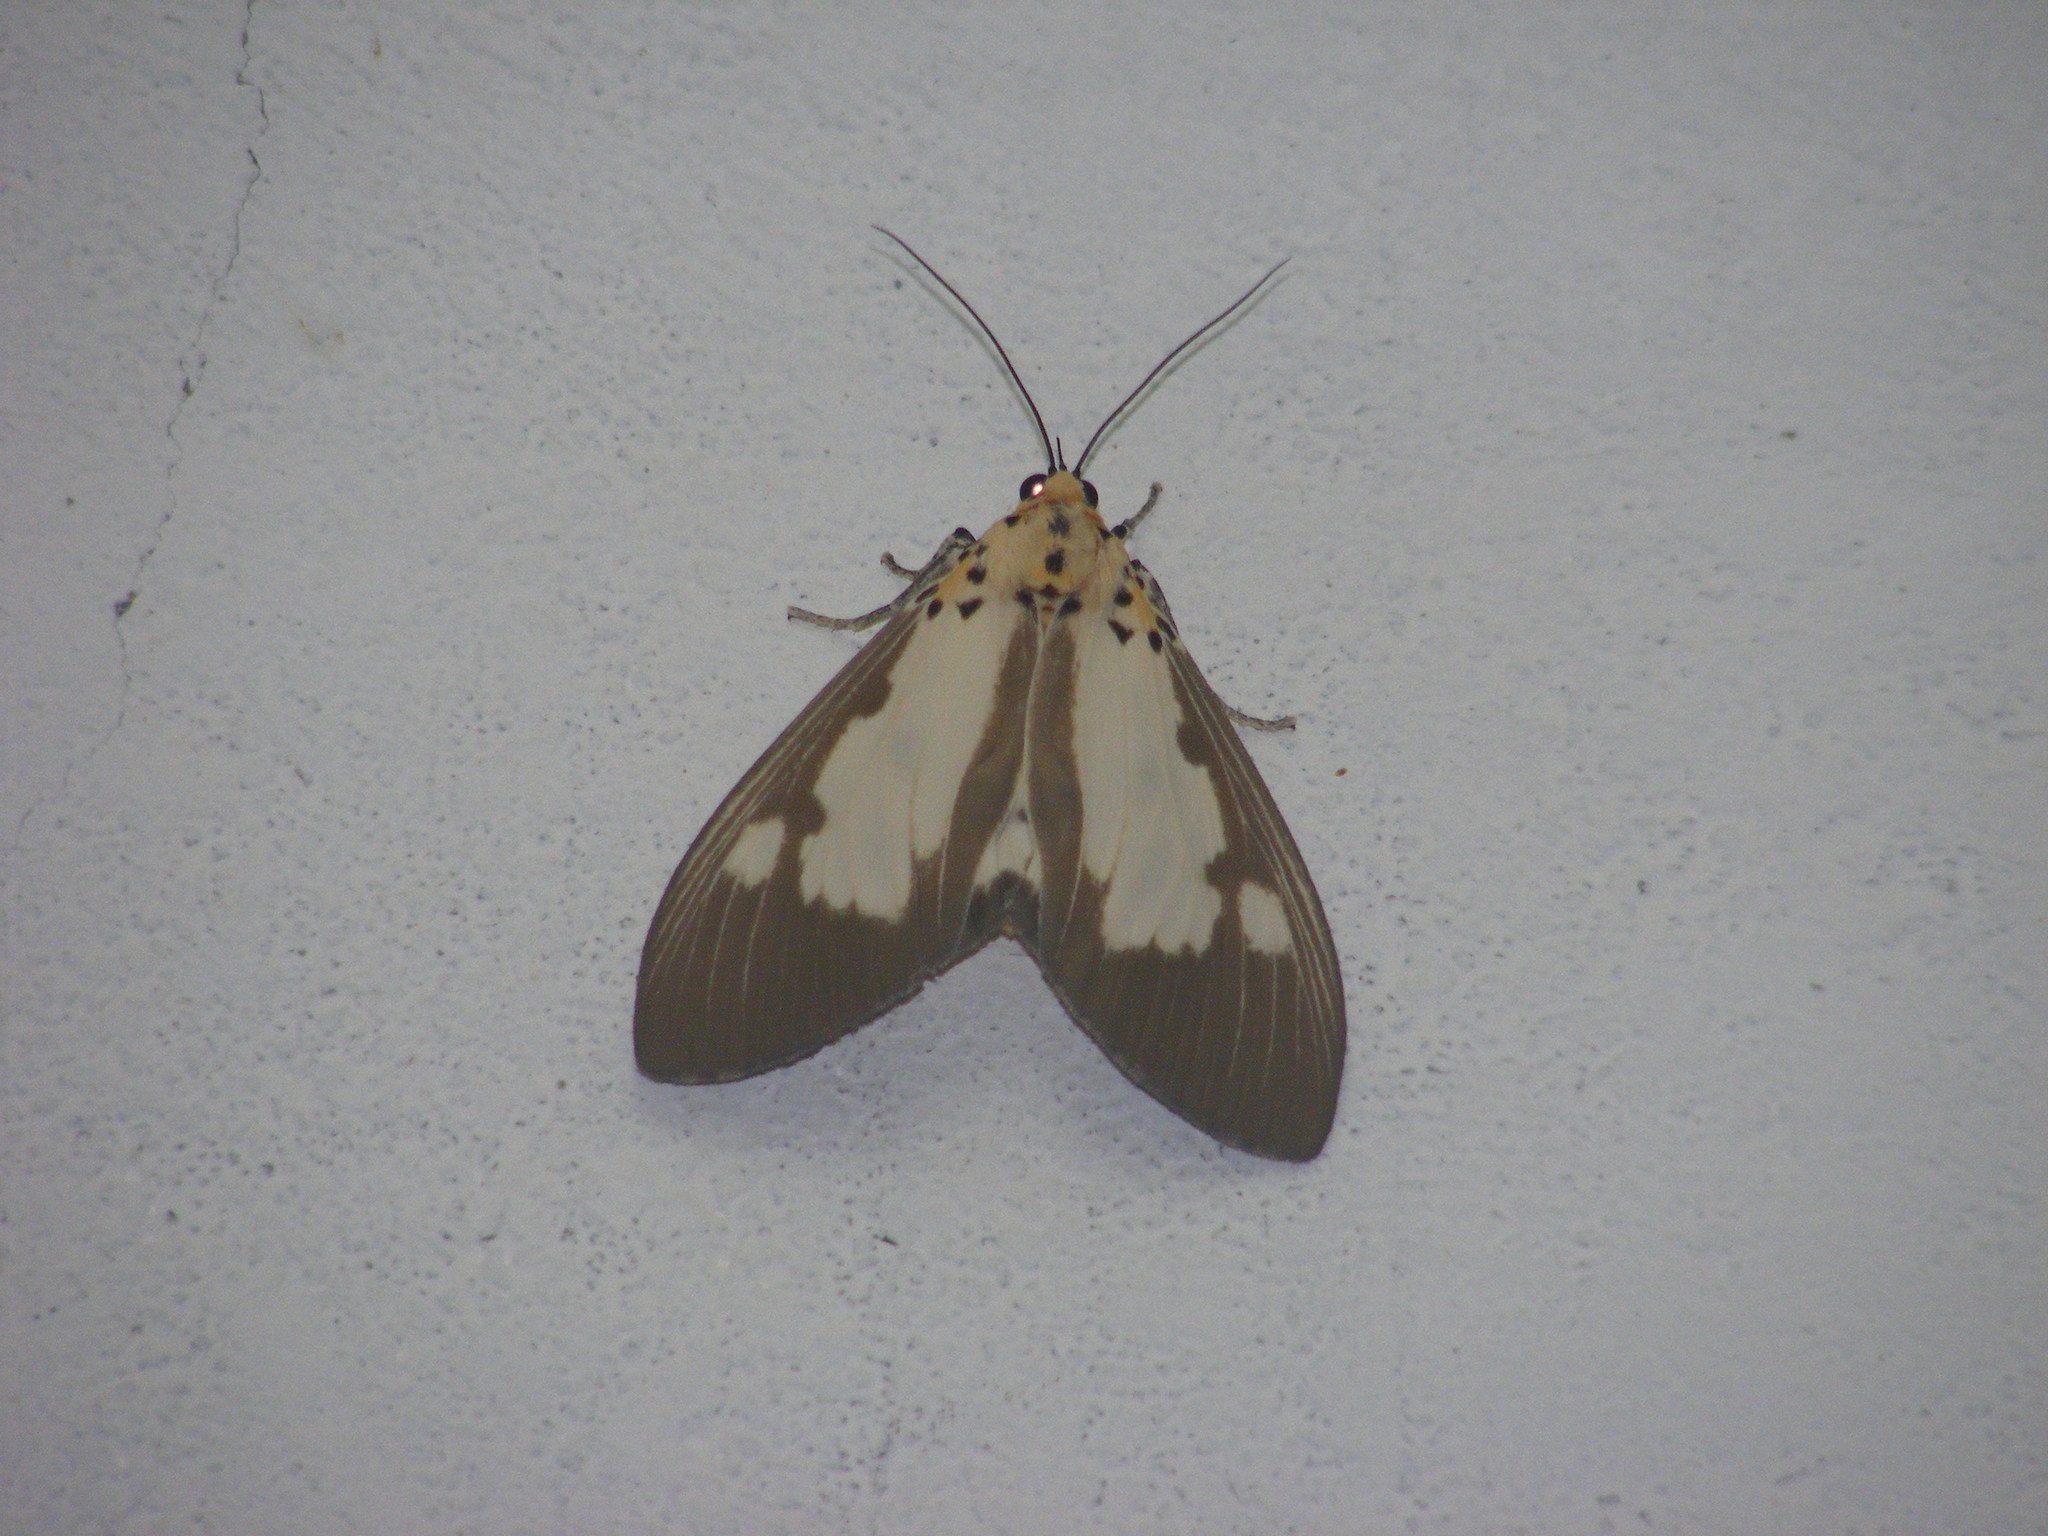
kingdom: Animalia
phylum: Arthropoda
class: Insecta
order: Lepidoptera
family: Erebidae
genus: Asota
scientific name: Asota plana
